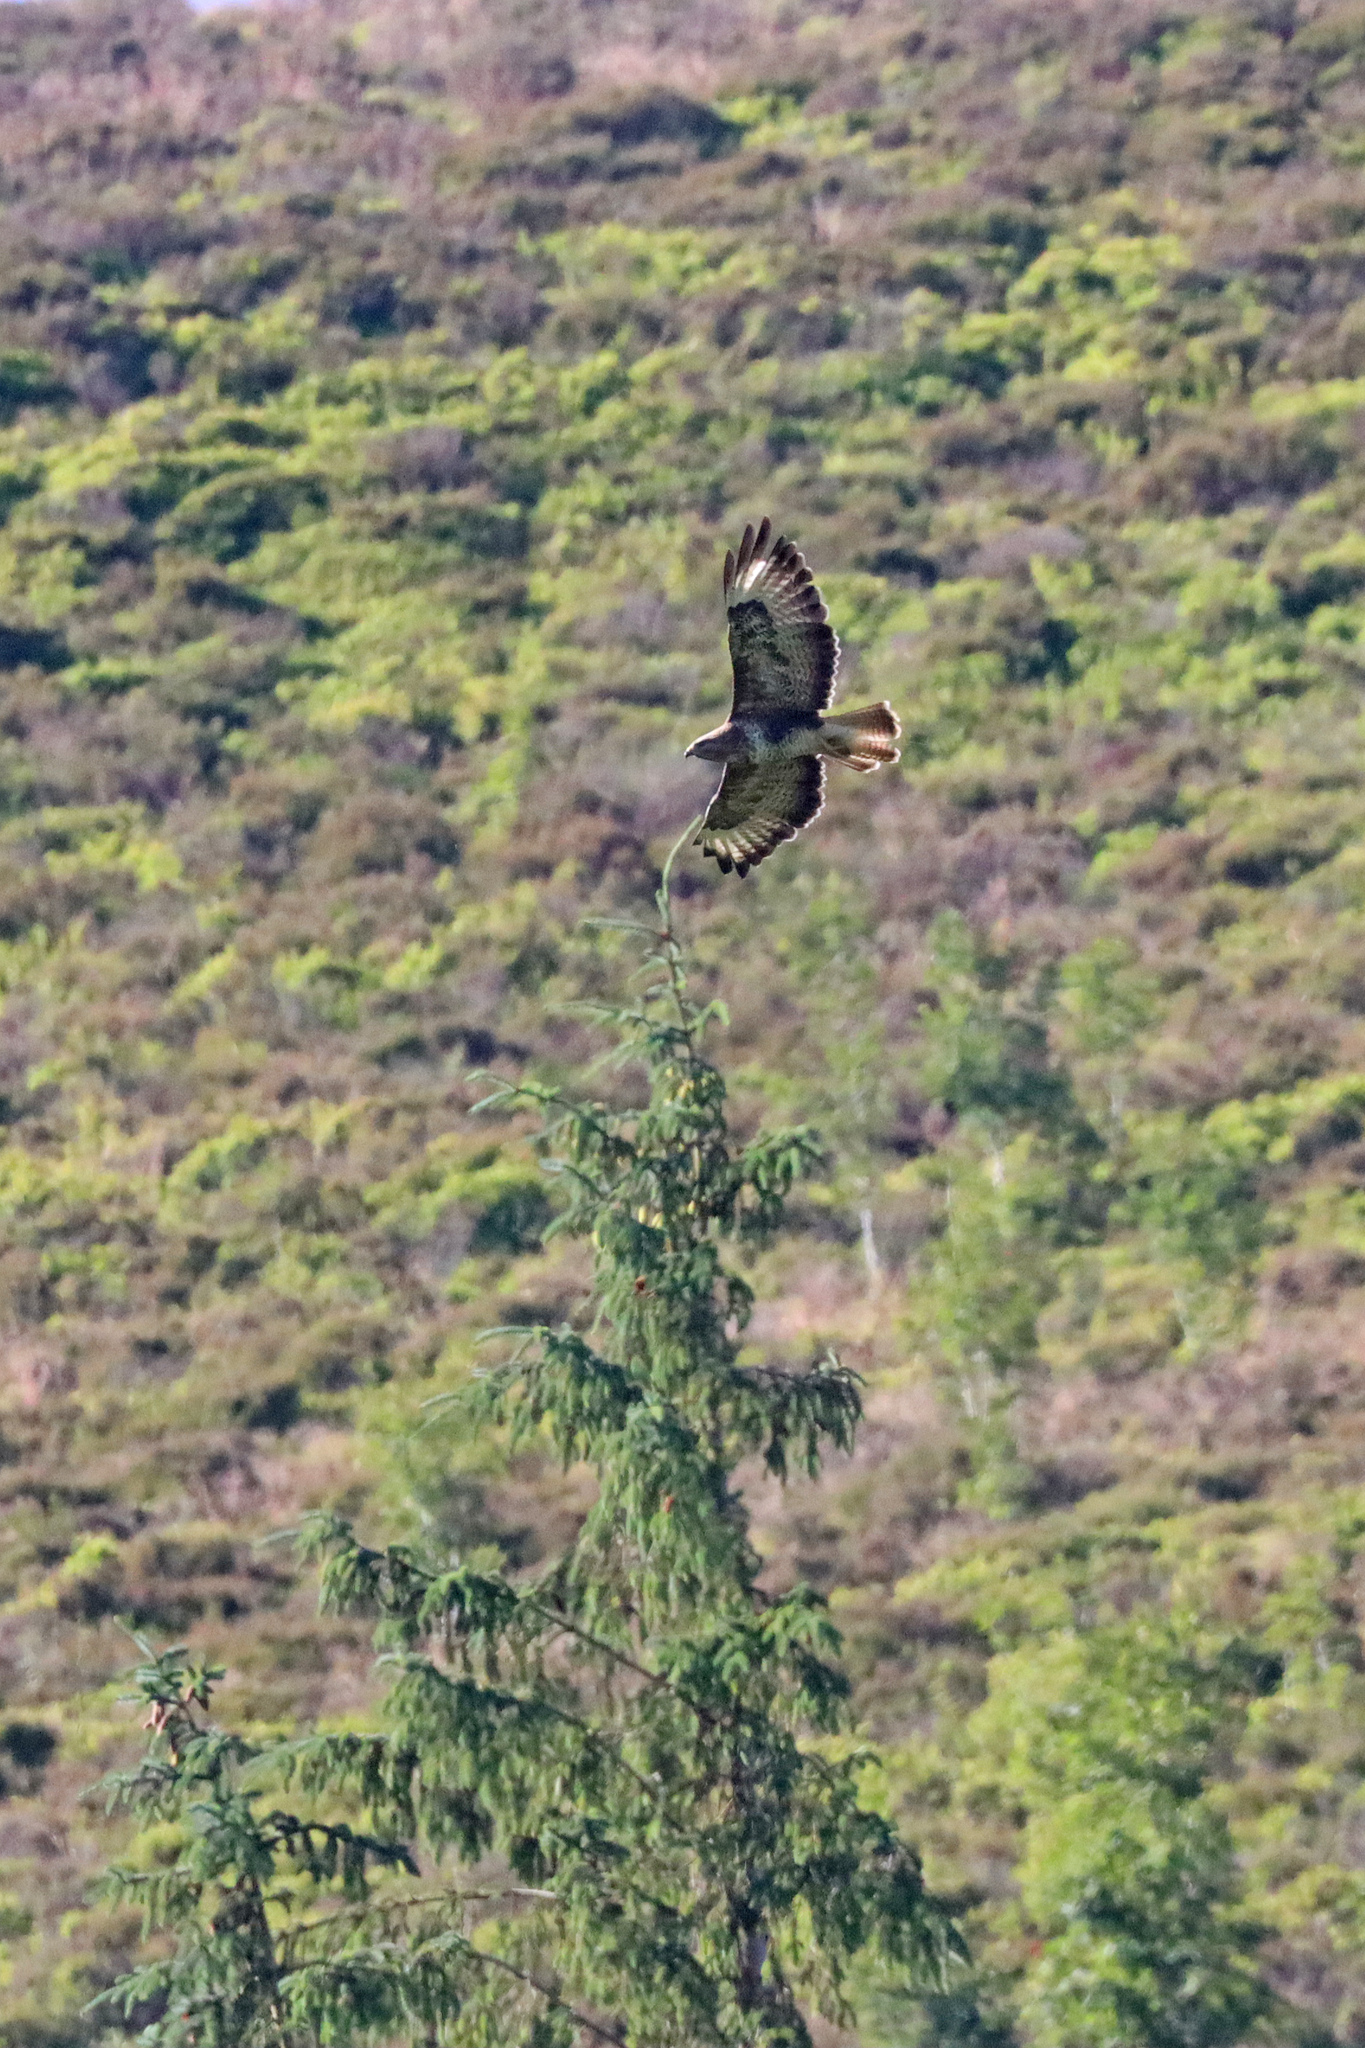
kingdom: Animalia
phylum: Chordata
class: Aves
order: Accipitriformes
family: Accipitridae
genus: Buteo
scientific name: Buteo buteo
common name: Common buzzard
